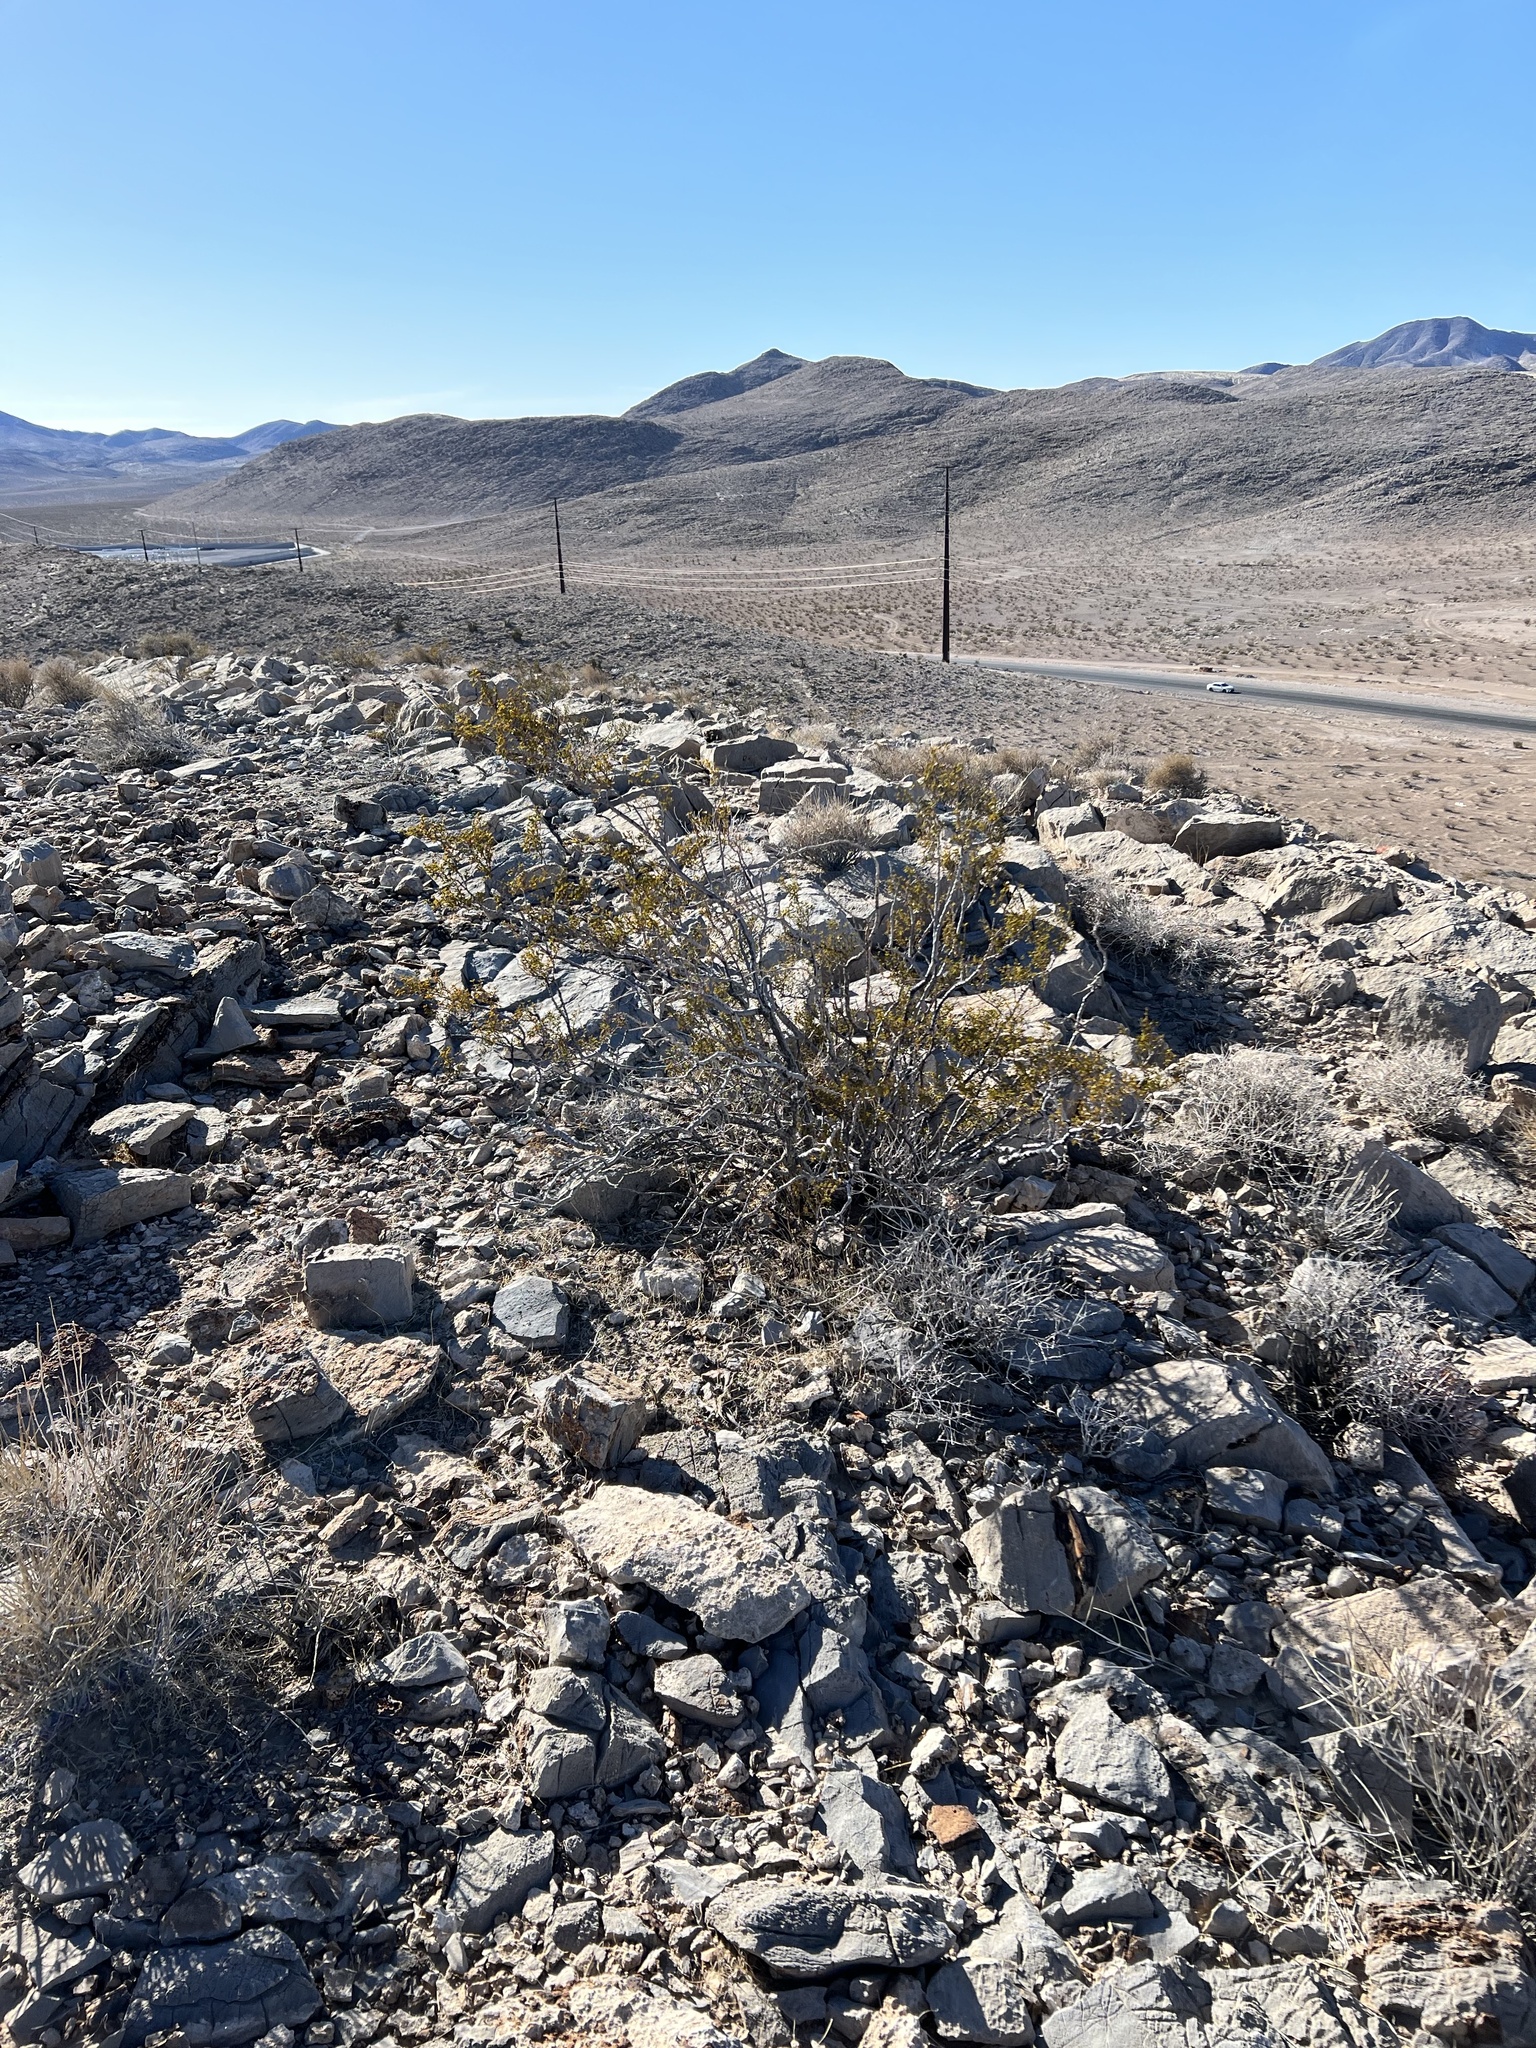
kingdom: Plantae
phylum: Tracheophyta
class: Magnoliopsida
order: Zygophyllales
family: Zygophyllaceae
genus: Larrea
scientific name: Larrea tridentata
